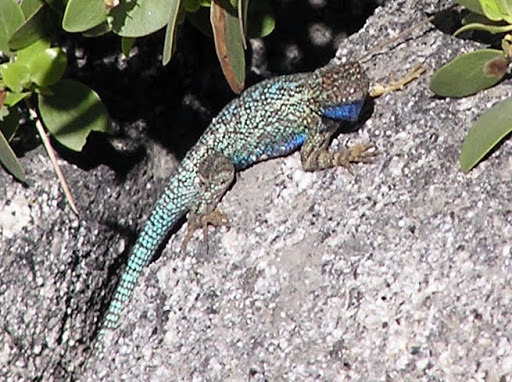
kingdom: Animalia
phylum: Chordata
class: Squamata
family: Phrynosomatidae
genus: Sceloporus
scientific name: Sceloporus occidentalis
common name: Western fence lizard
